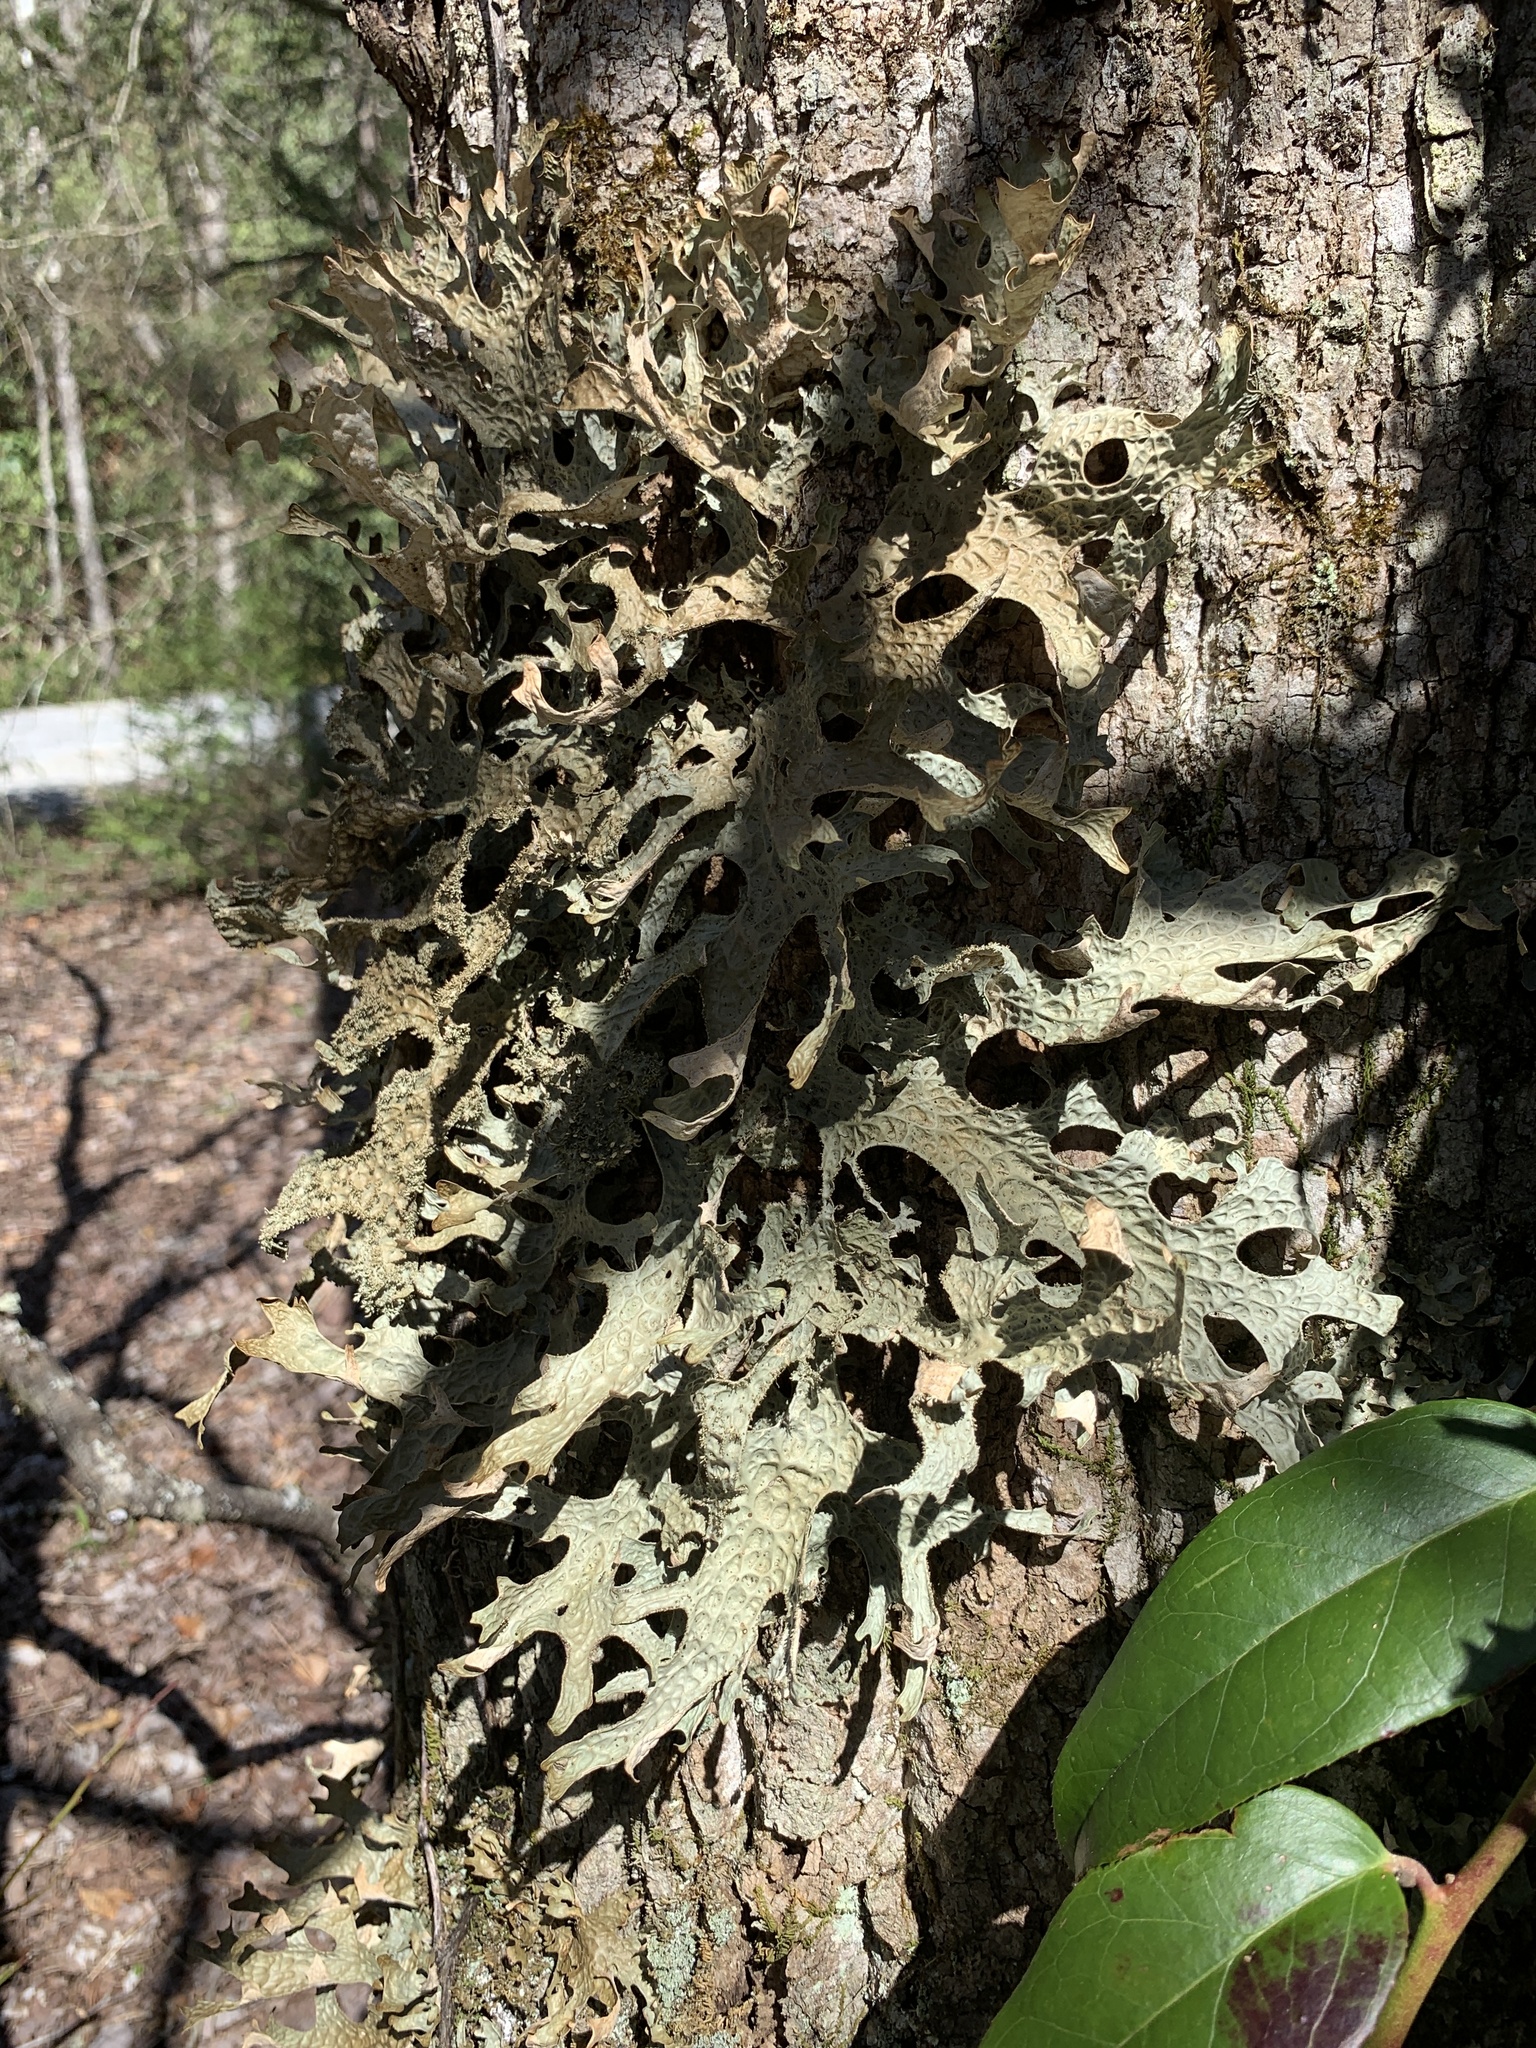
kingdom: Fungi
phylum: Ascomycota
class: Lecanoromycetes
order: Peltigerales
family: Lobariaceae
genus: Lobaria
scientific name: Lobaria pulmonaria
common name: Lungwort
